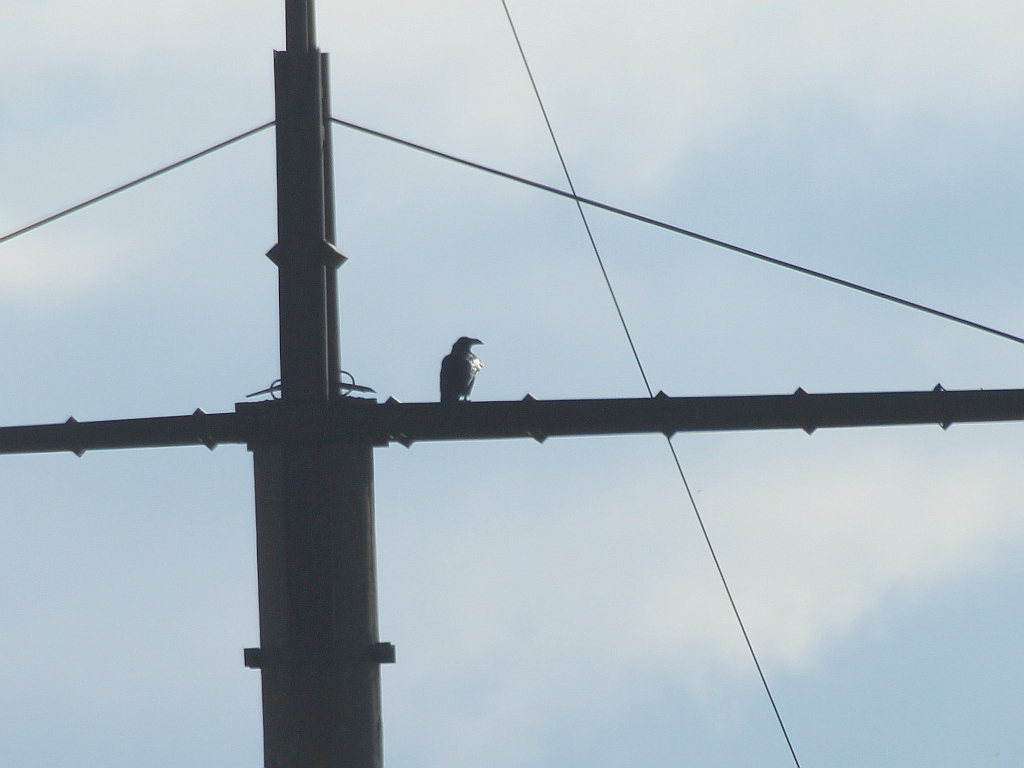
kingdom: Animalia
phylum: Chordata
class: Aves
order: Passeriformes
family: Corvidae
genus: Corvus
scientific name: Corvus corax
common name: Common raven
